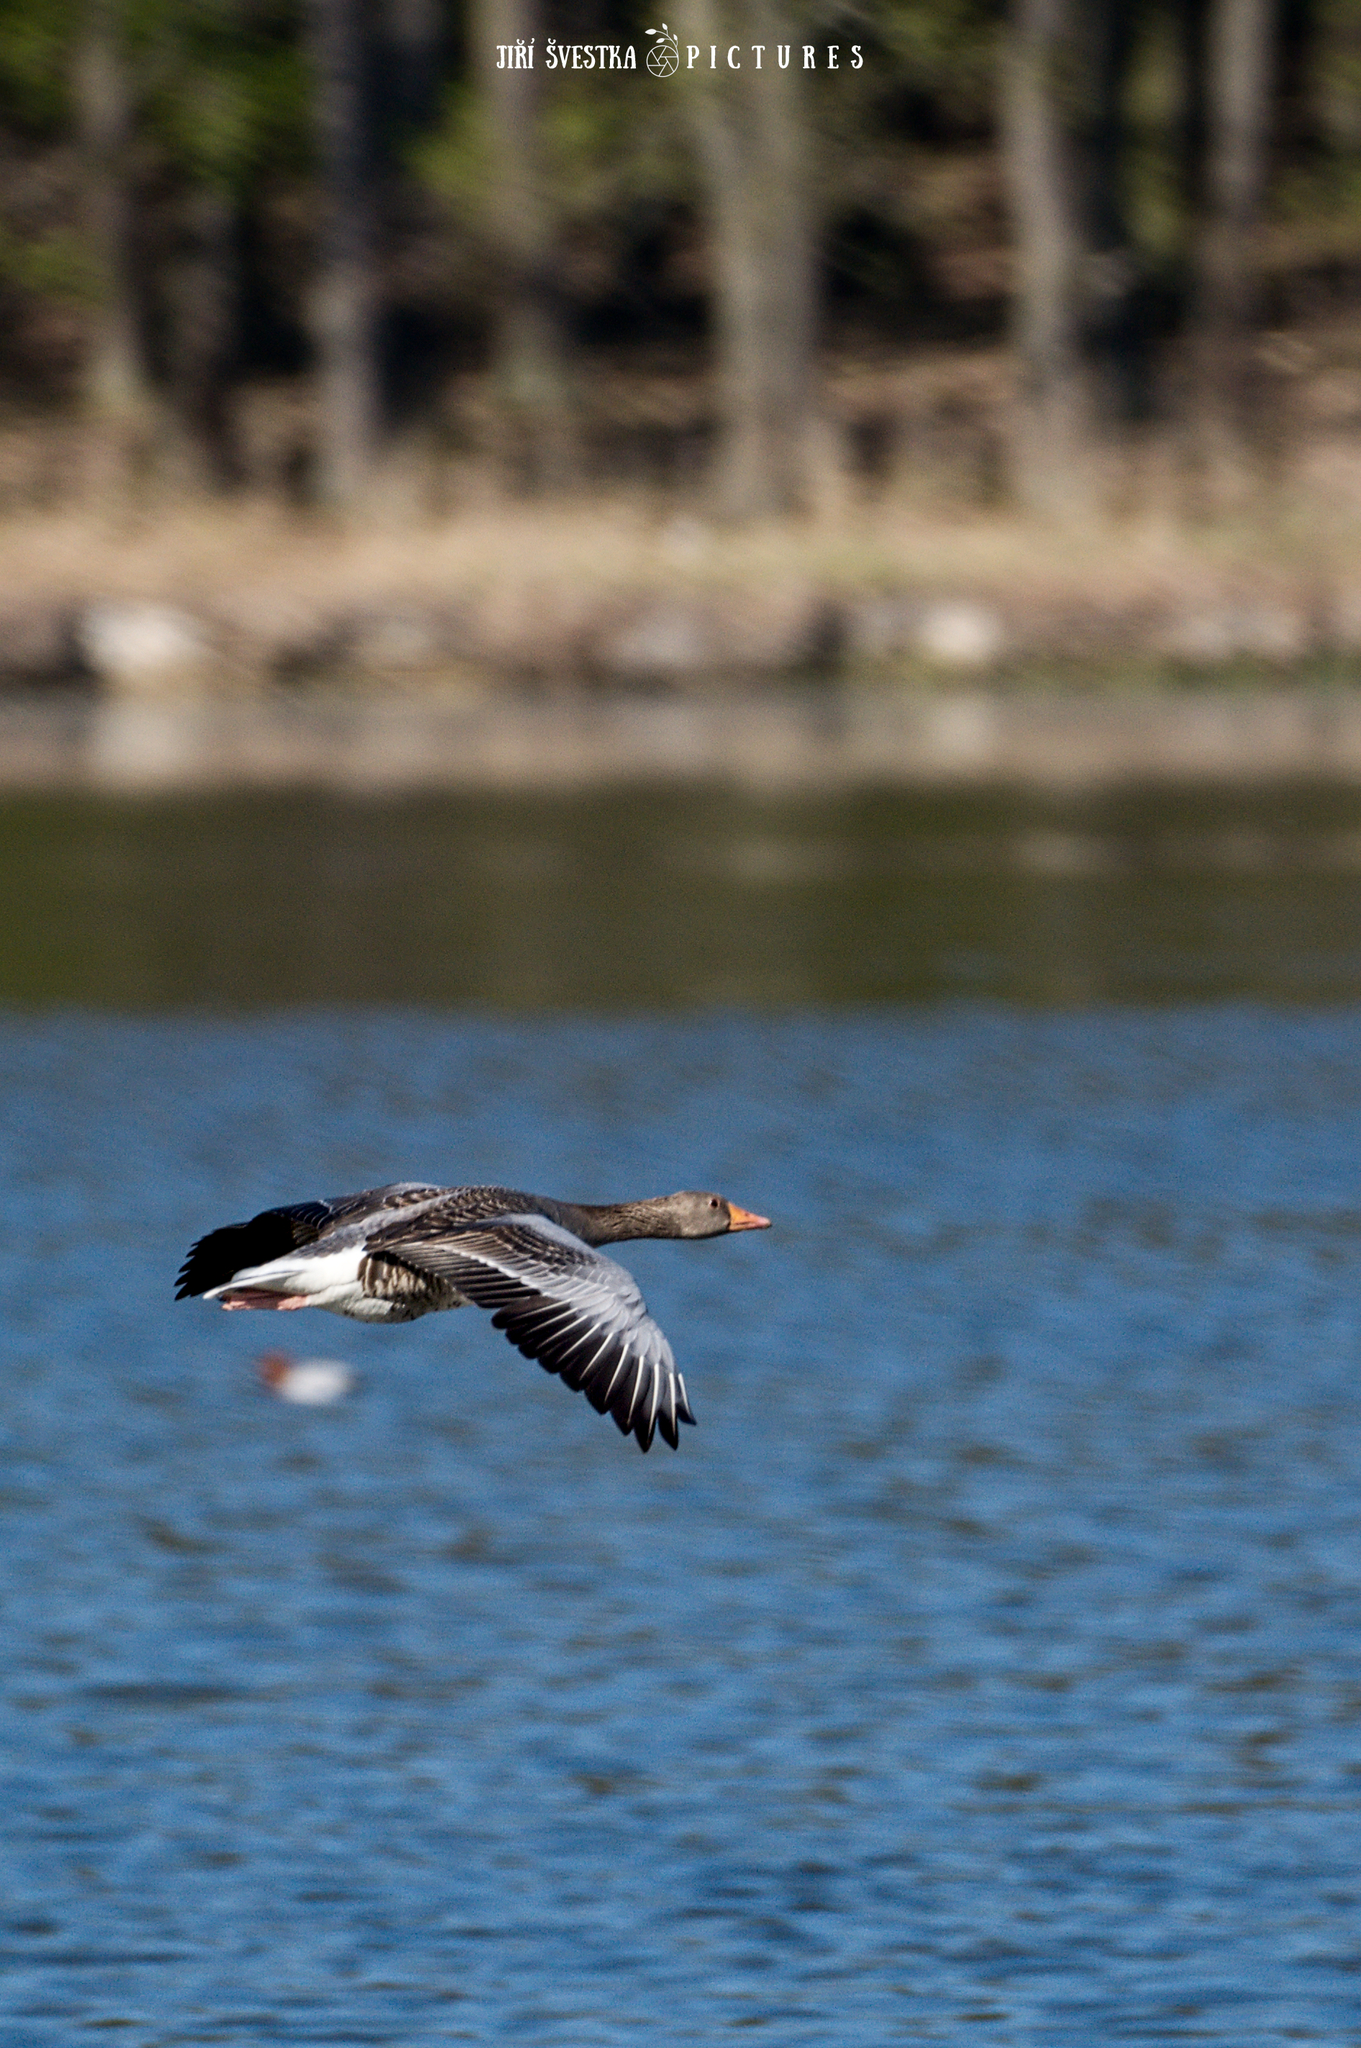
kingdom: Animalia
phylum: Chordata
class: Aves
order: Anseriformes
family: Anatidae
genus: Anser
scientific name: Anser anser
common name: Greylag goose
